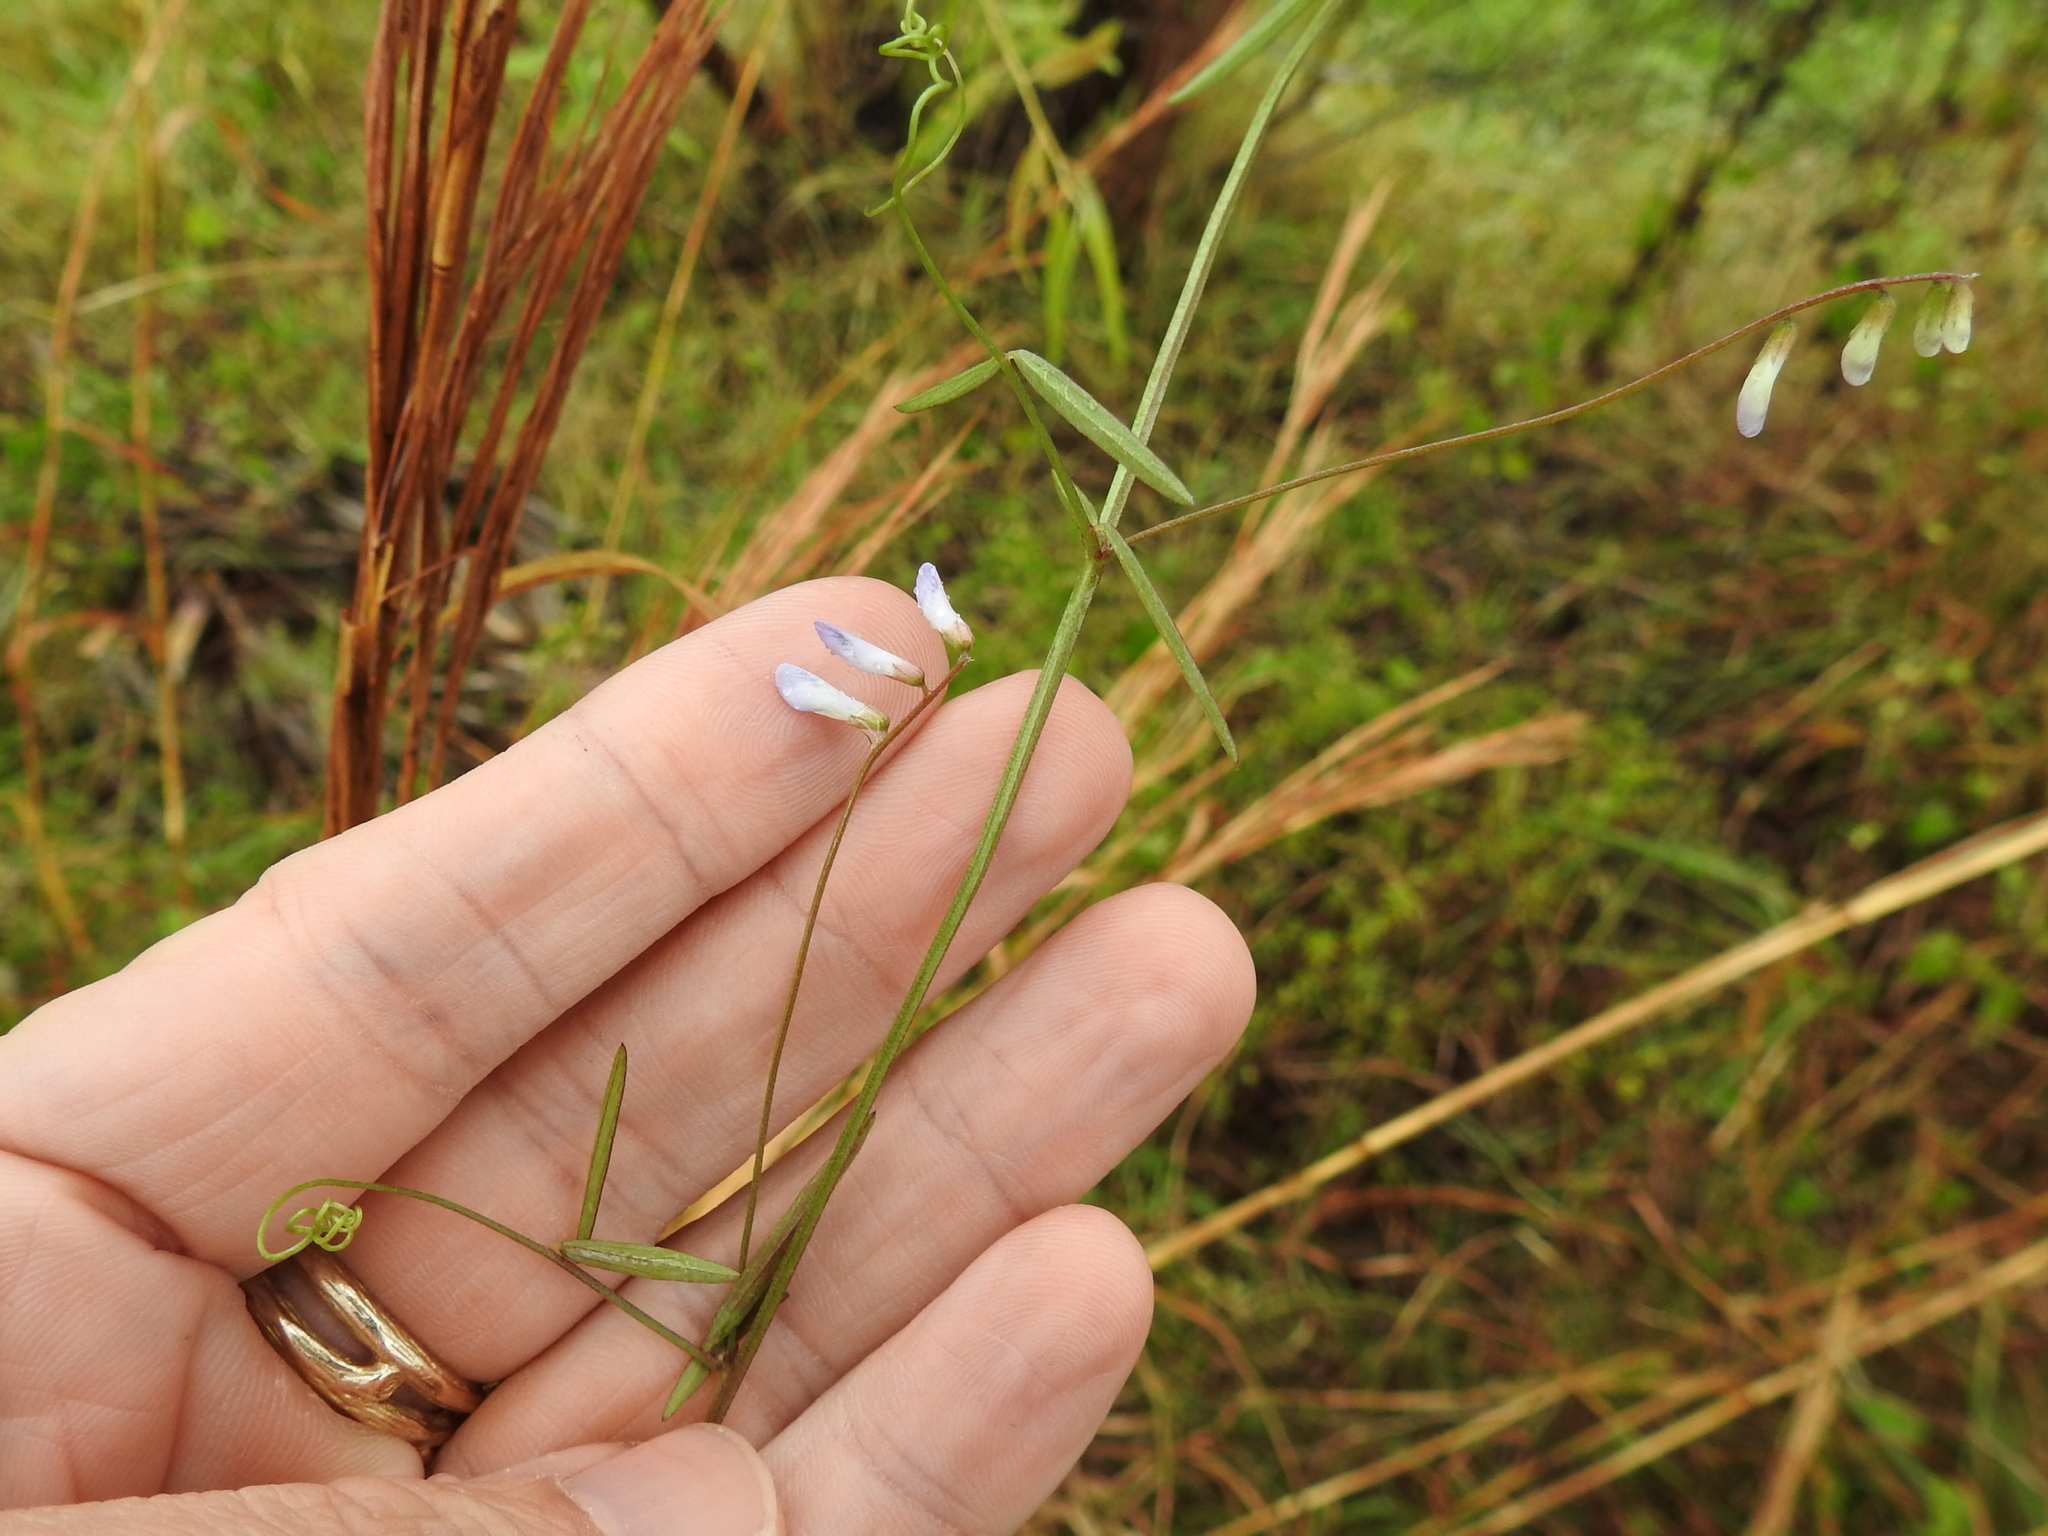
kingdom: Plantae
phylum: Tracheophyta
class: Magnoliopsida
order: Fabales
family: Fabaceae
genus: Vicia
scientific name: Vicia acutifolia
